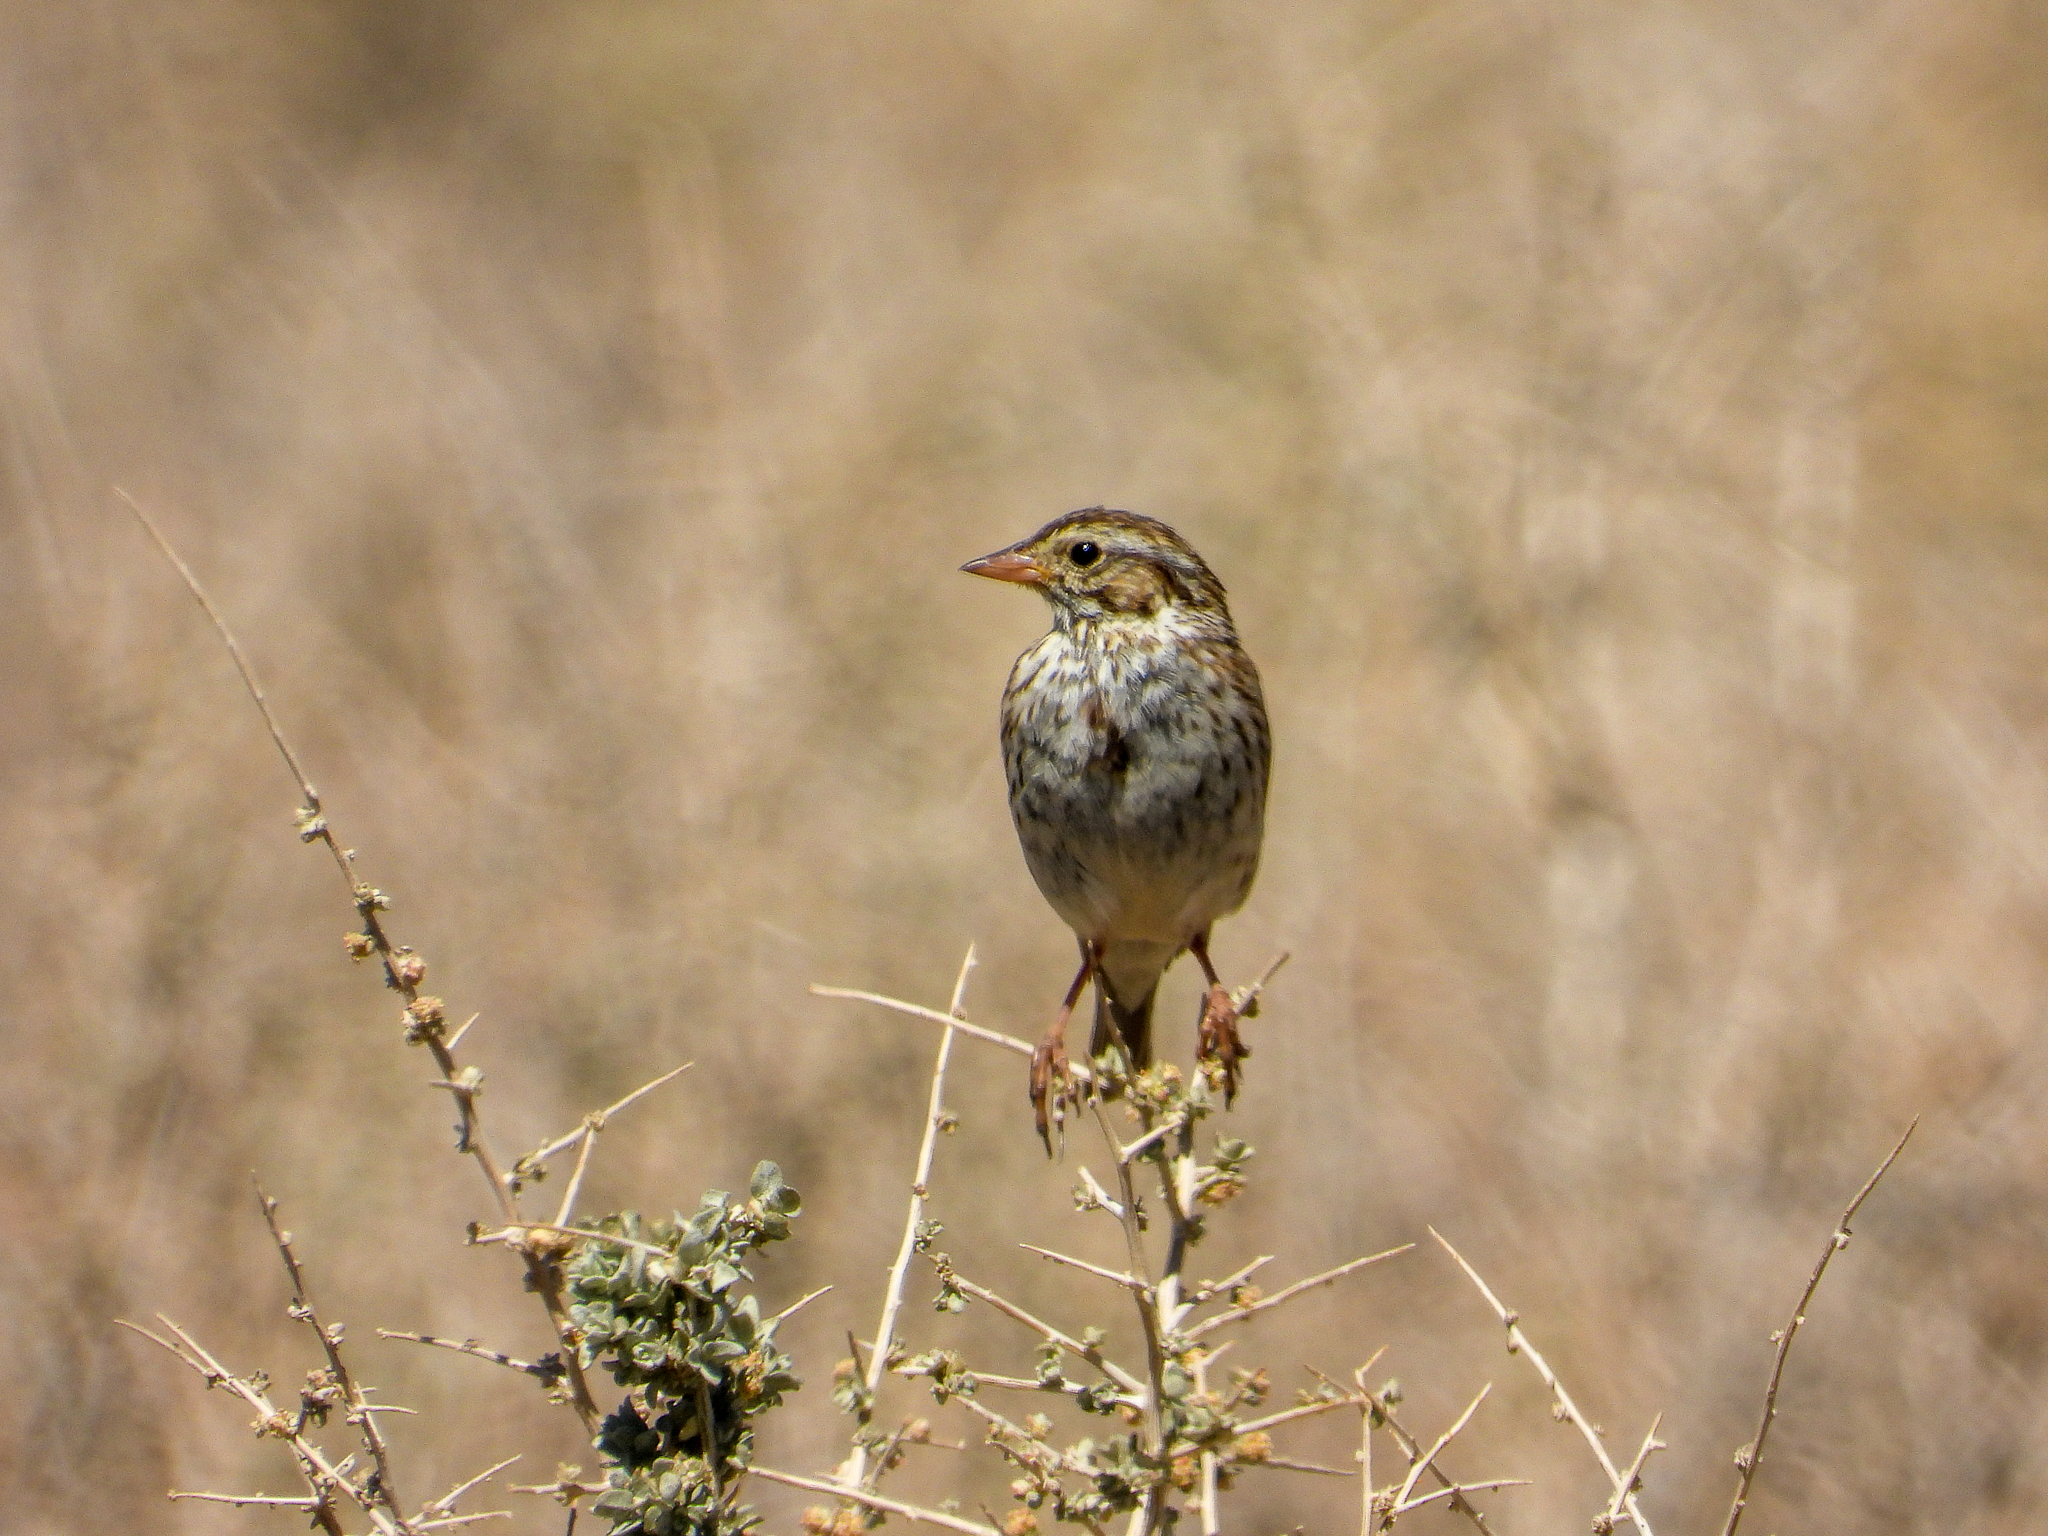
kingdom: Animalia
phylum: Chordata
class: Aves
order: Passeriformes
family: Passerellidae
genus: Passerculus
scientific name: Passerculus sandwichensis
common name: Savannah sparrow
